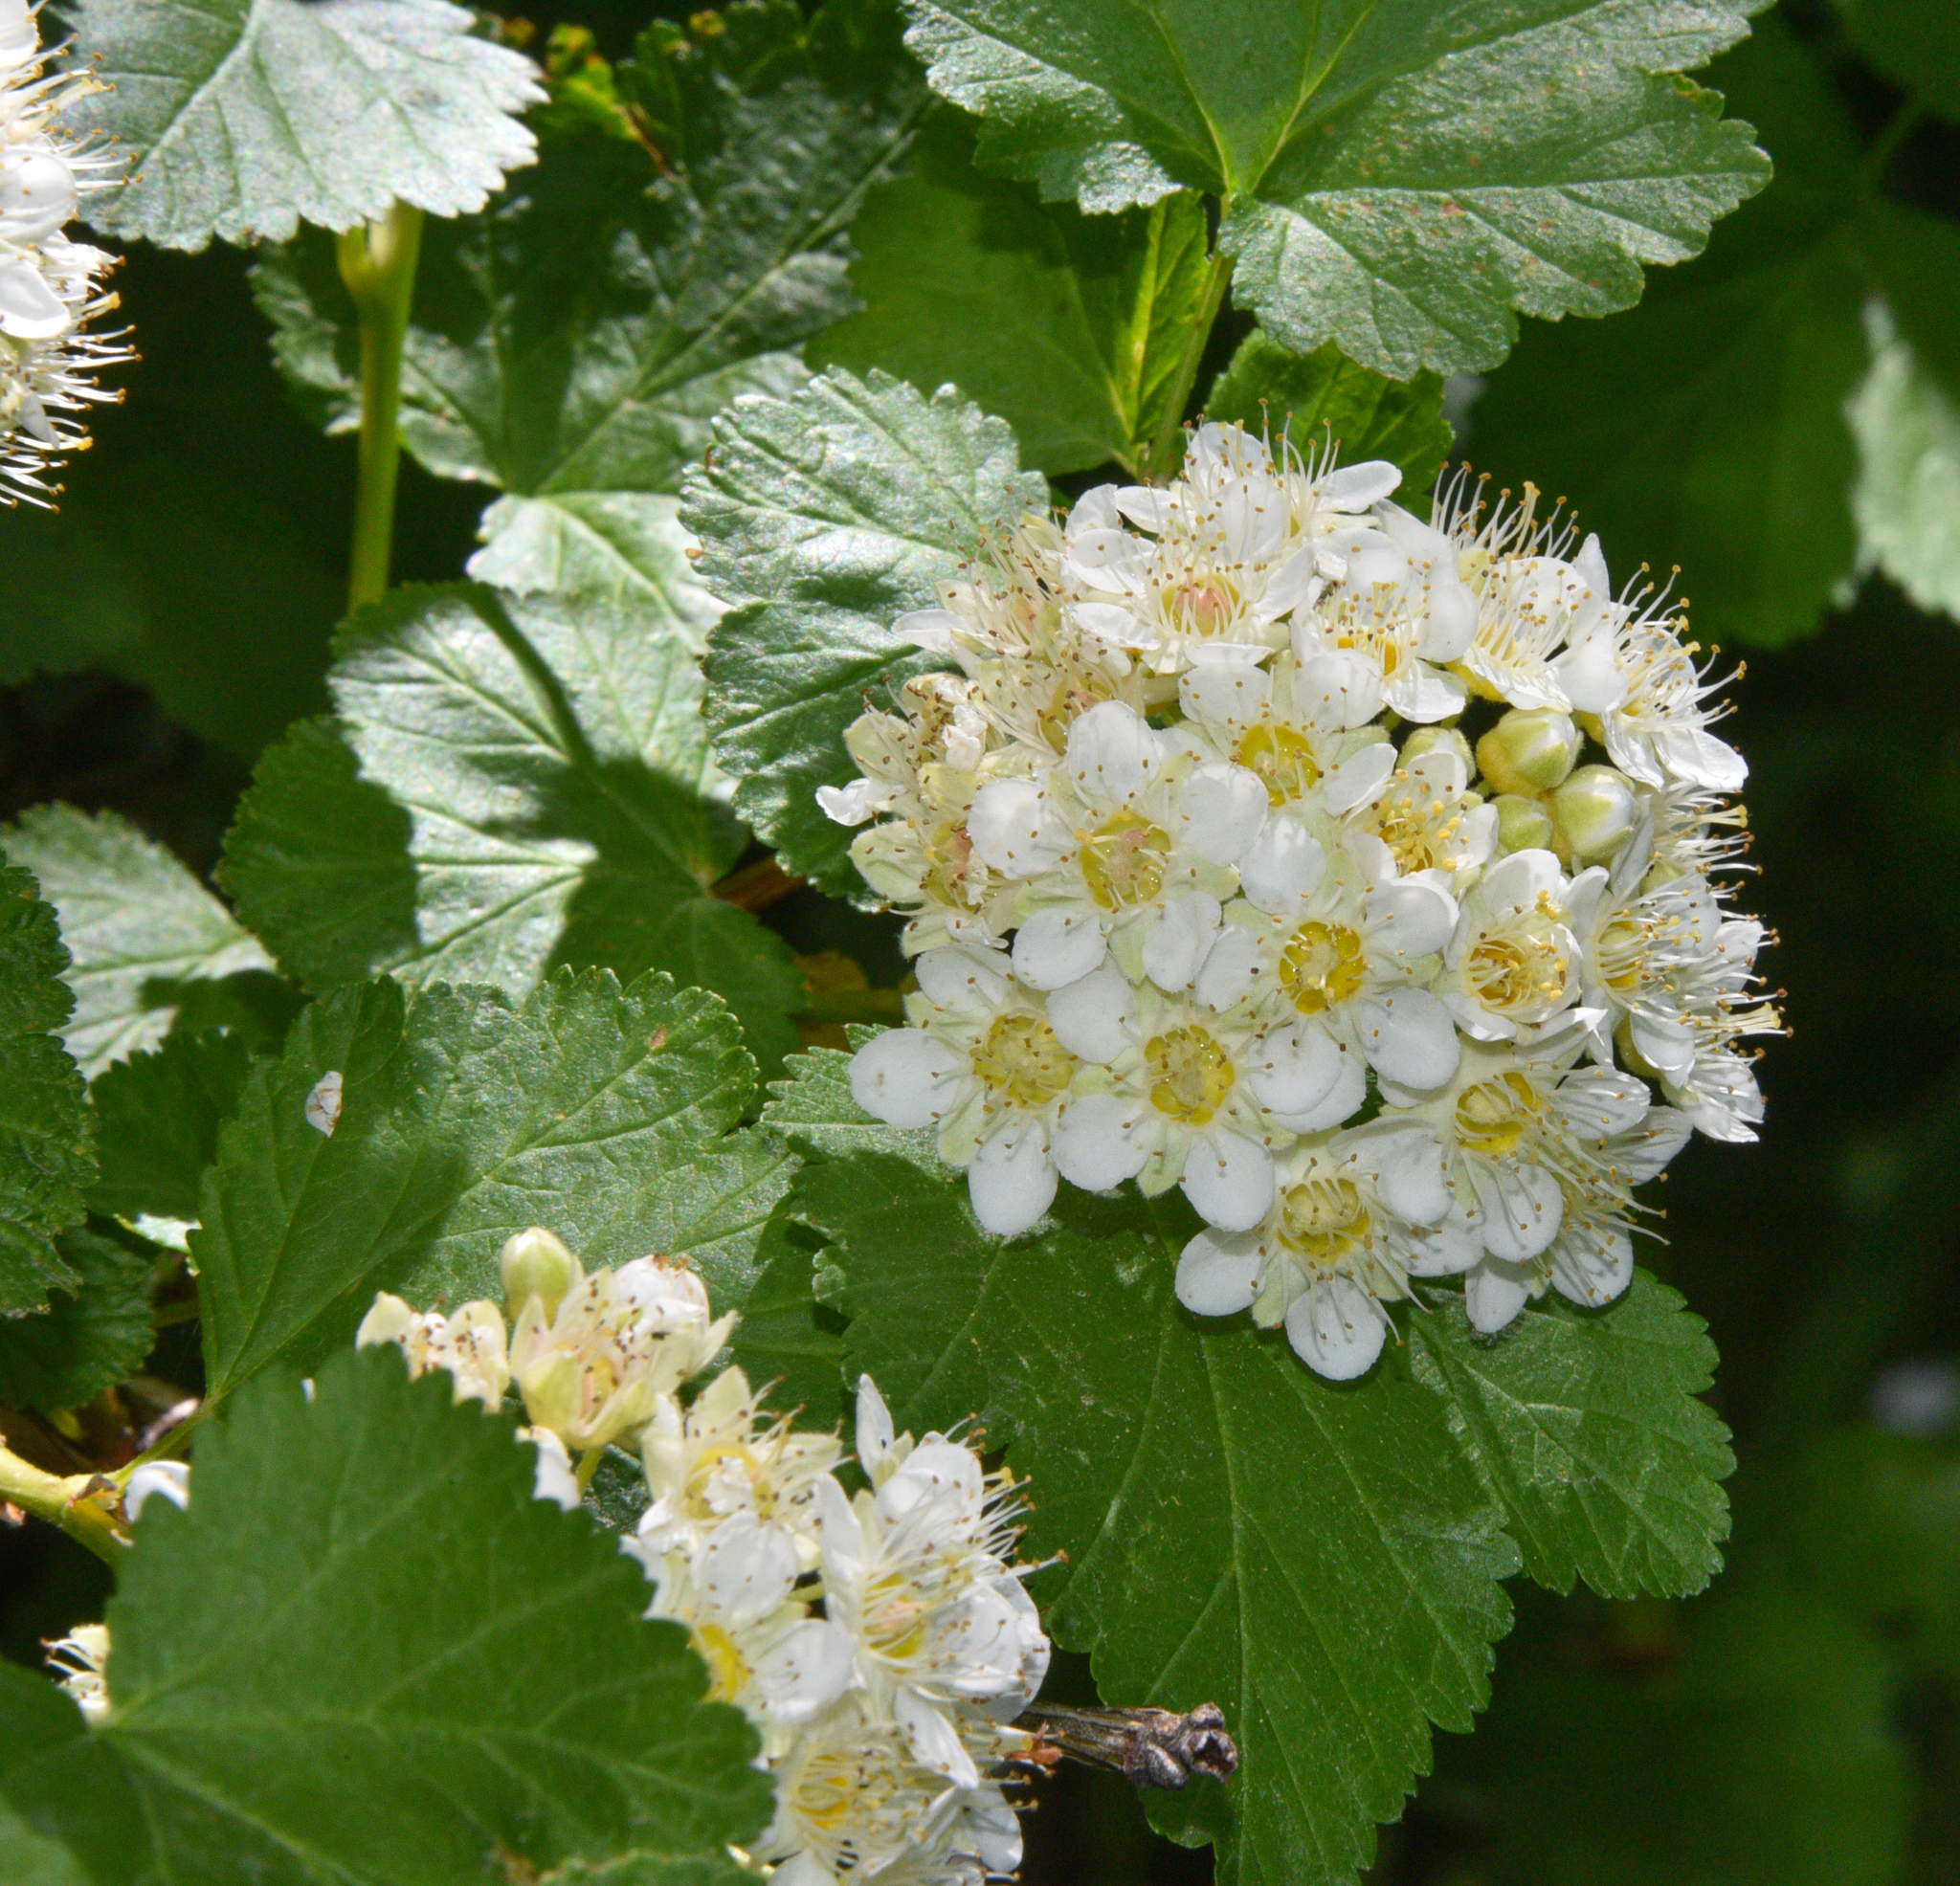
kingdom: Plantae
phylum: Tracheophyta
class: Magnoliopsida
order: Rosales
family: Rosaceae
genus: Physocarpus
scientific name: Physocarpus malvaceus
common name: Mallow ninebark
